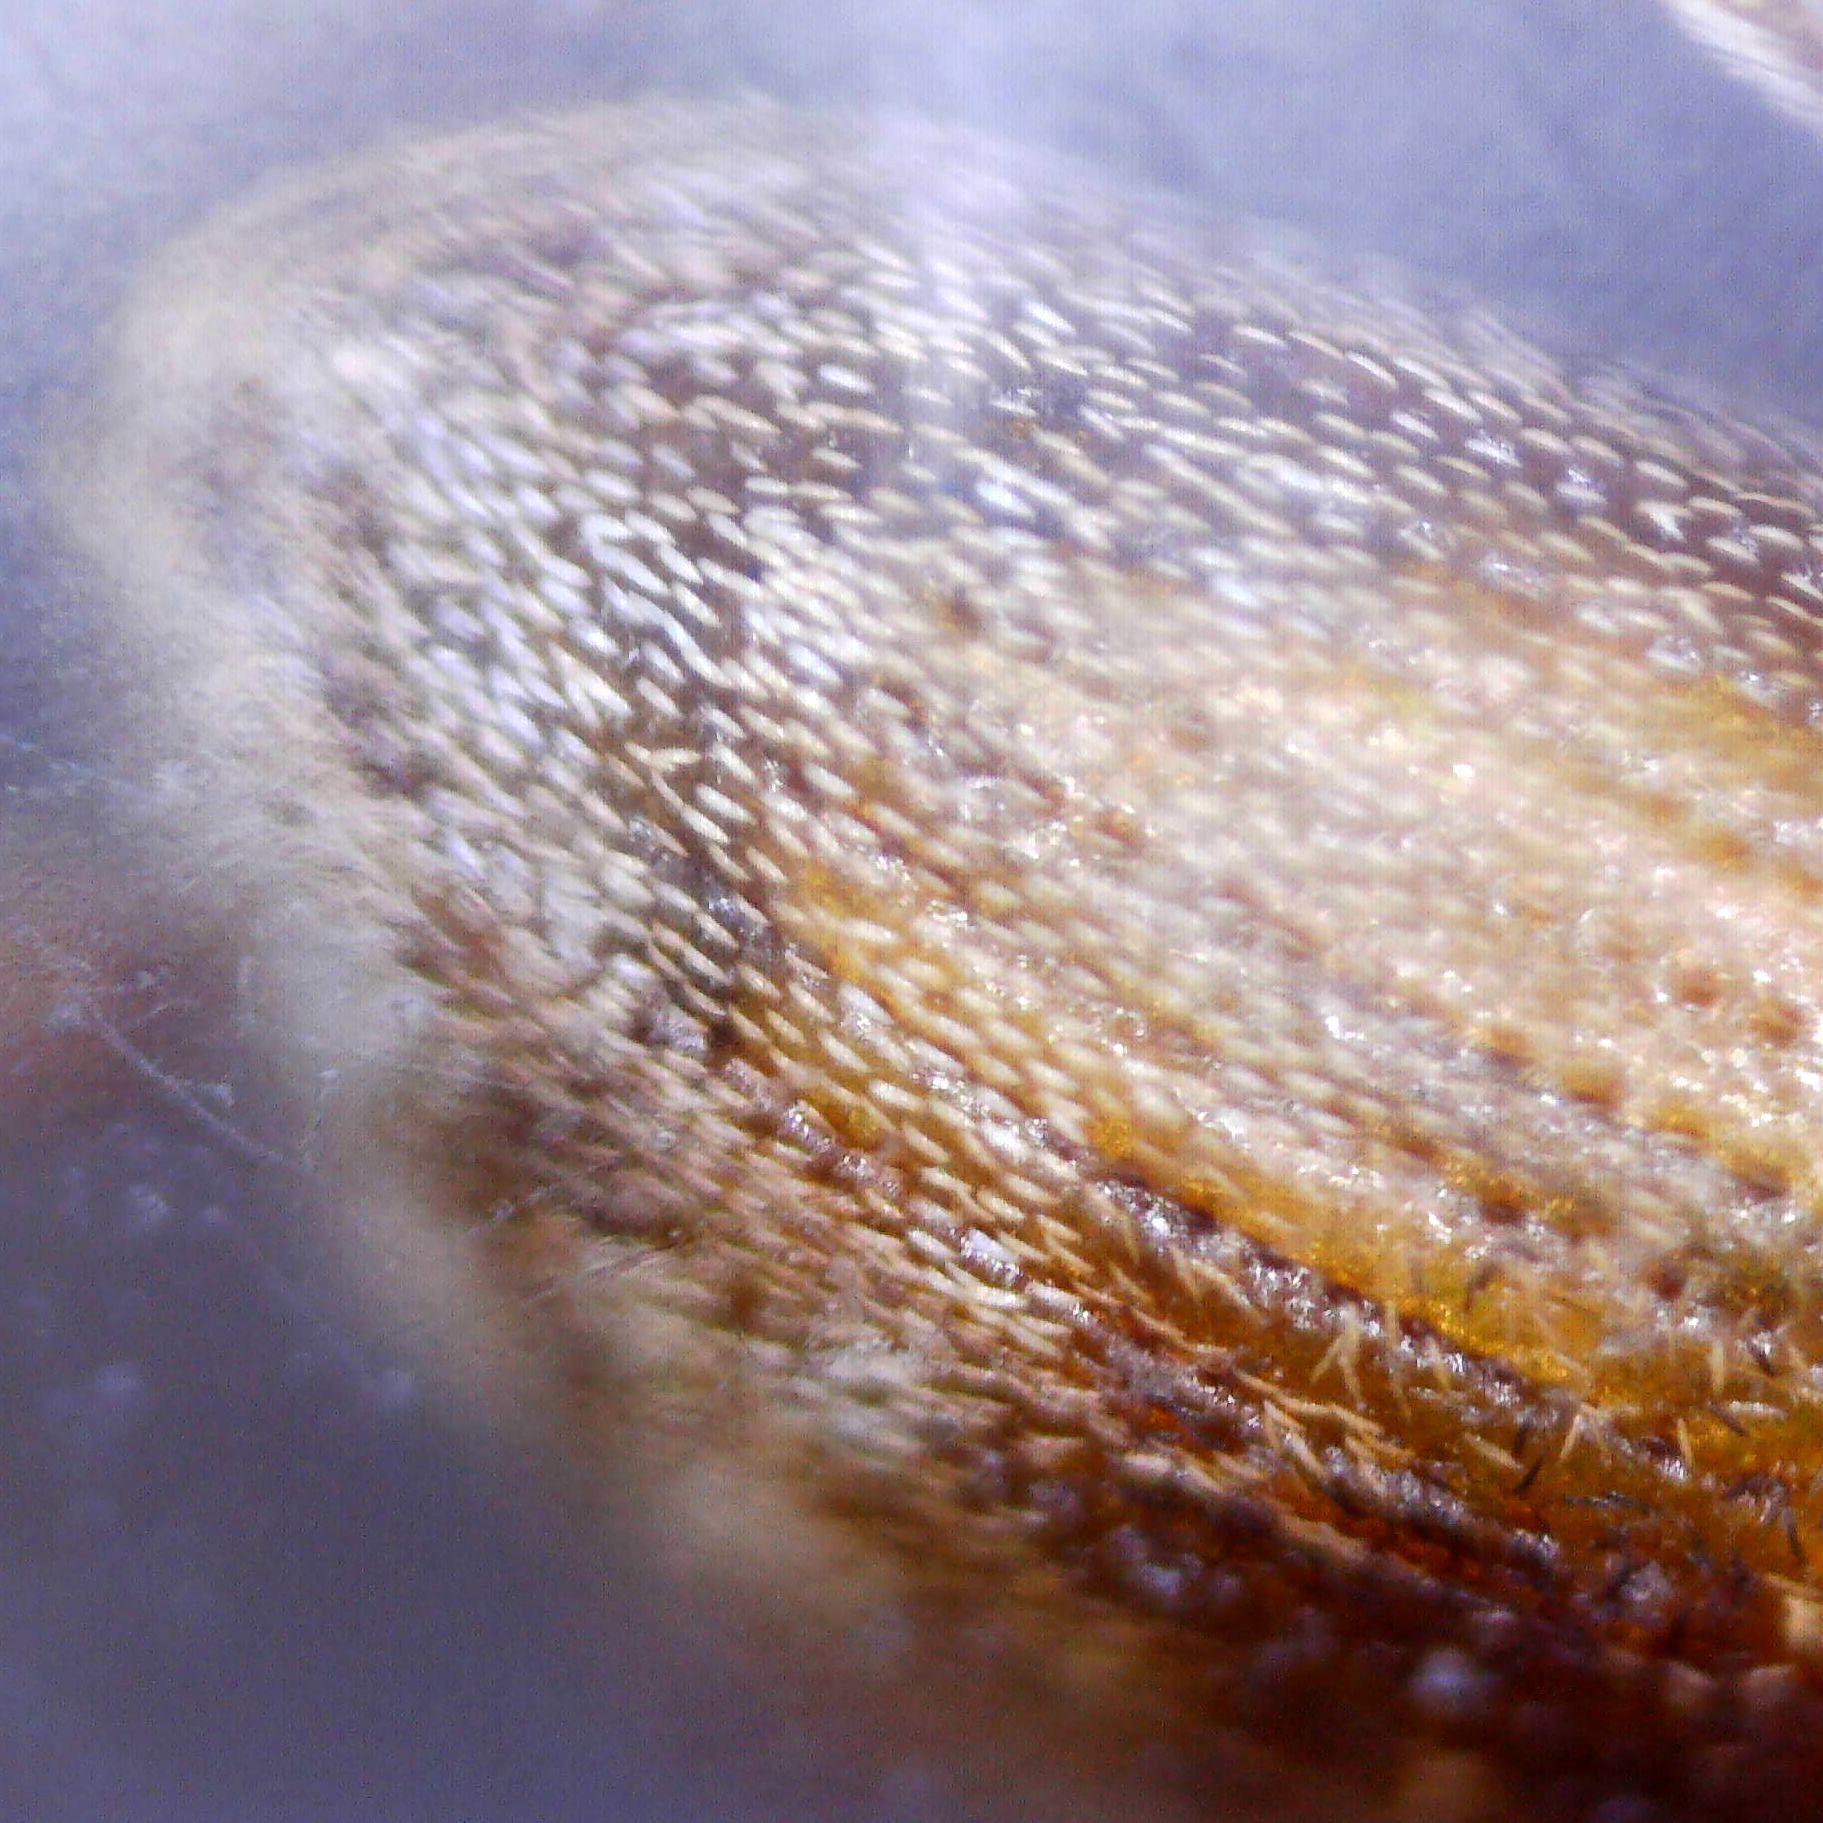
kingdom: Animalia
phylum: Arthropoda
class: Insecta
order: Coleoptera
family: Curculionidae
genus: Dorytomus
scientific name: Dorytomus melanophthalmus
